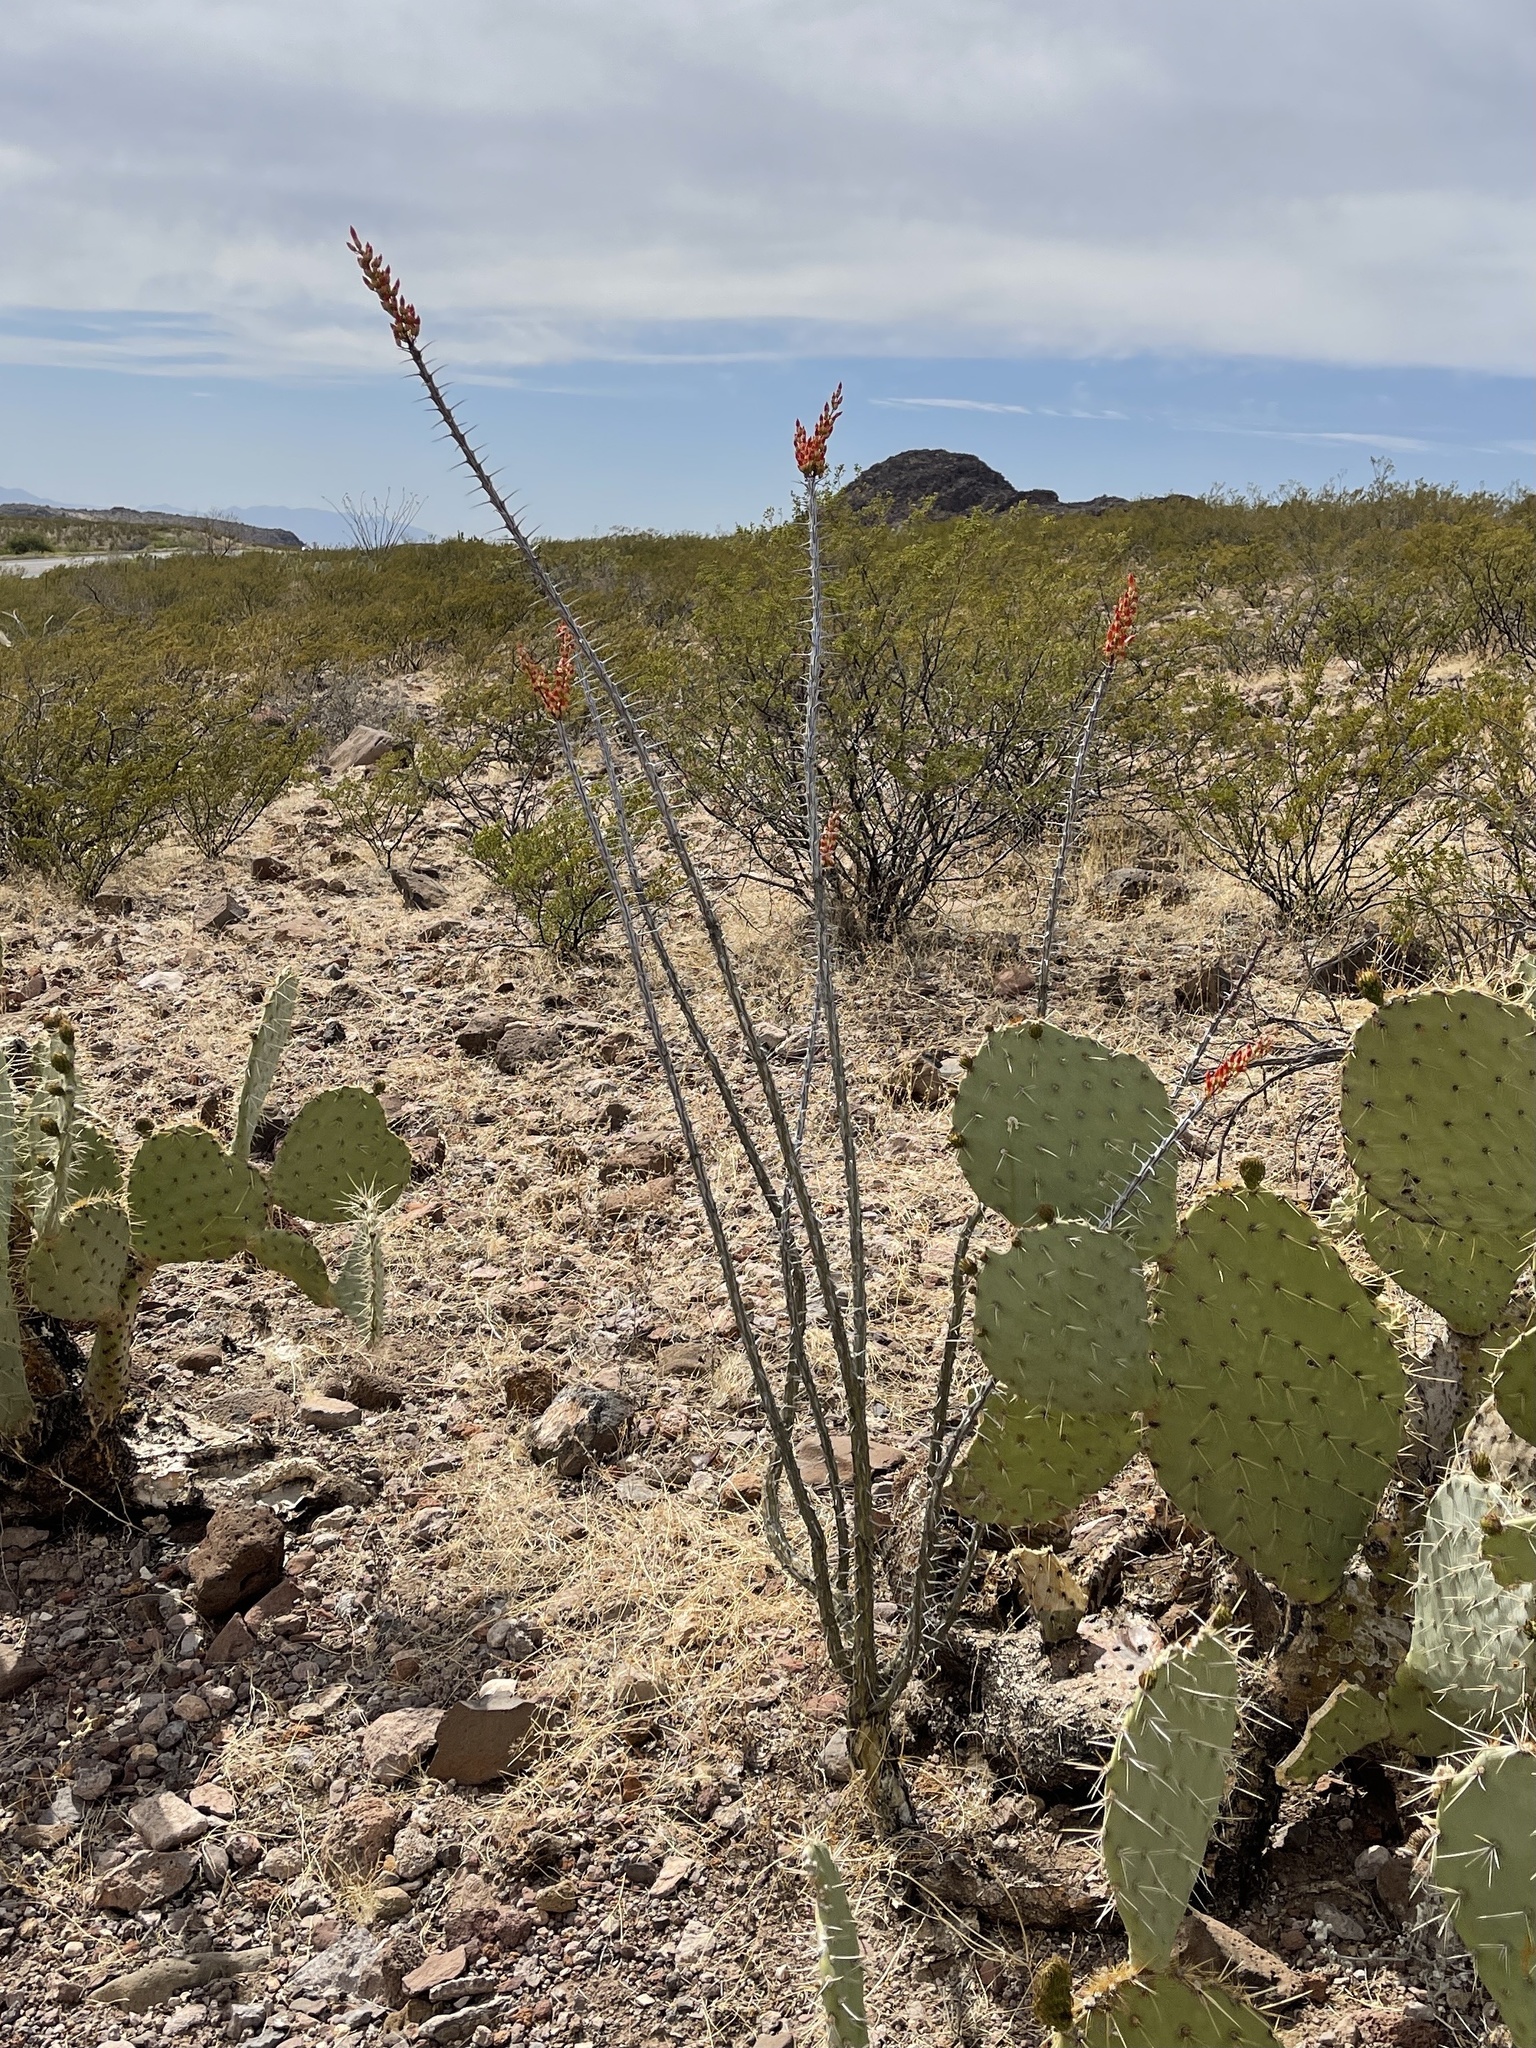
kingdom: Plantae
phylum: Tracheophyta
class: Magnoliopsida
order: Ericales
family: Fouquieriaceae
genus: Fouquieria
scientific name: Fouquieria splendens
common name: Vine-cactus
